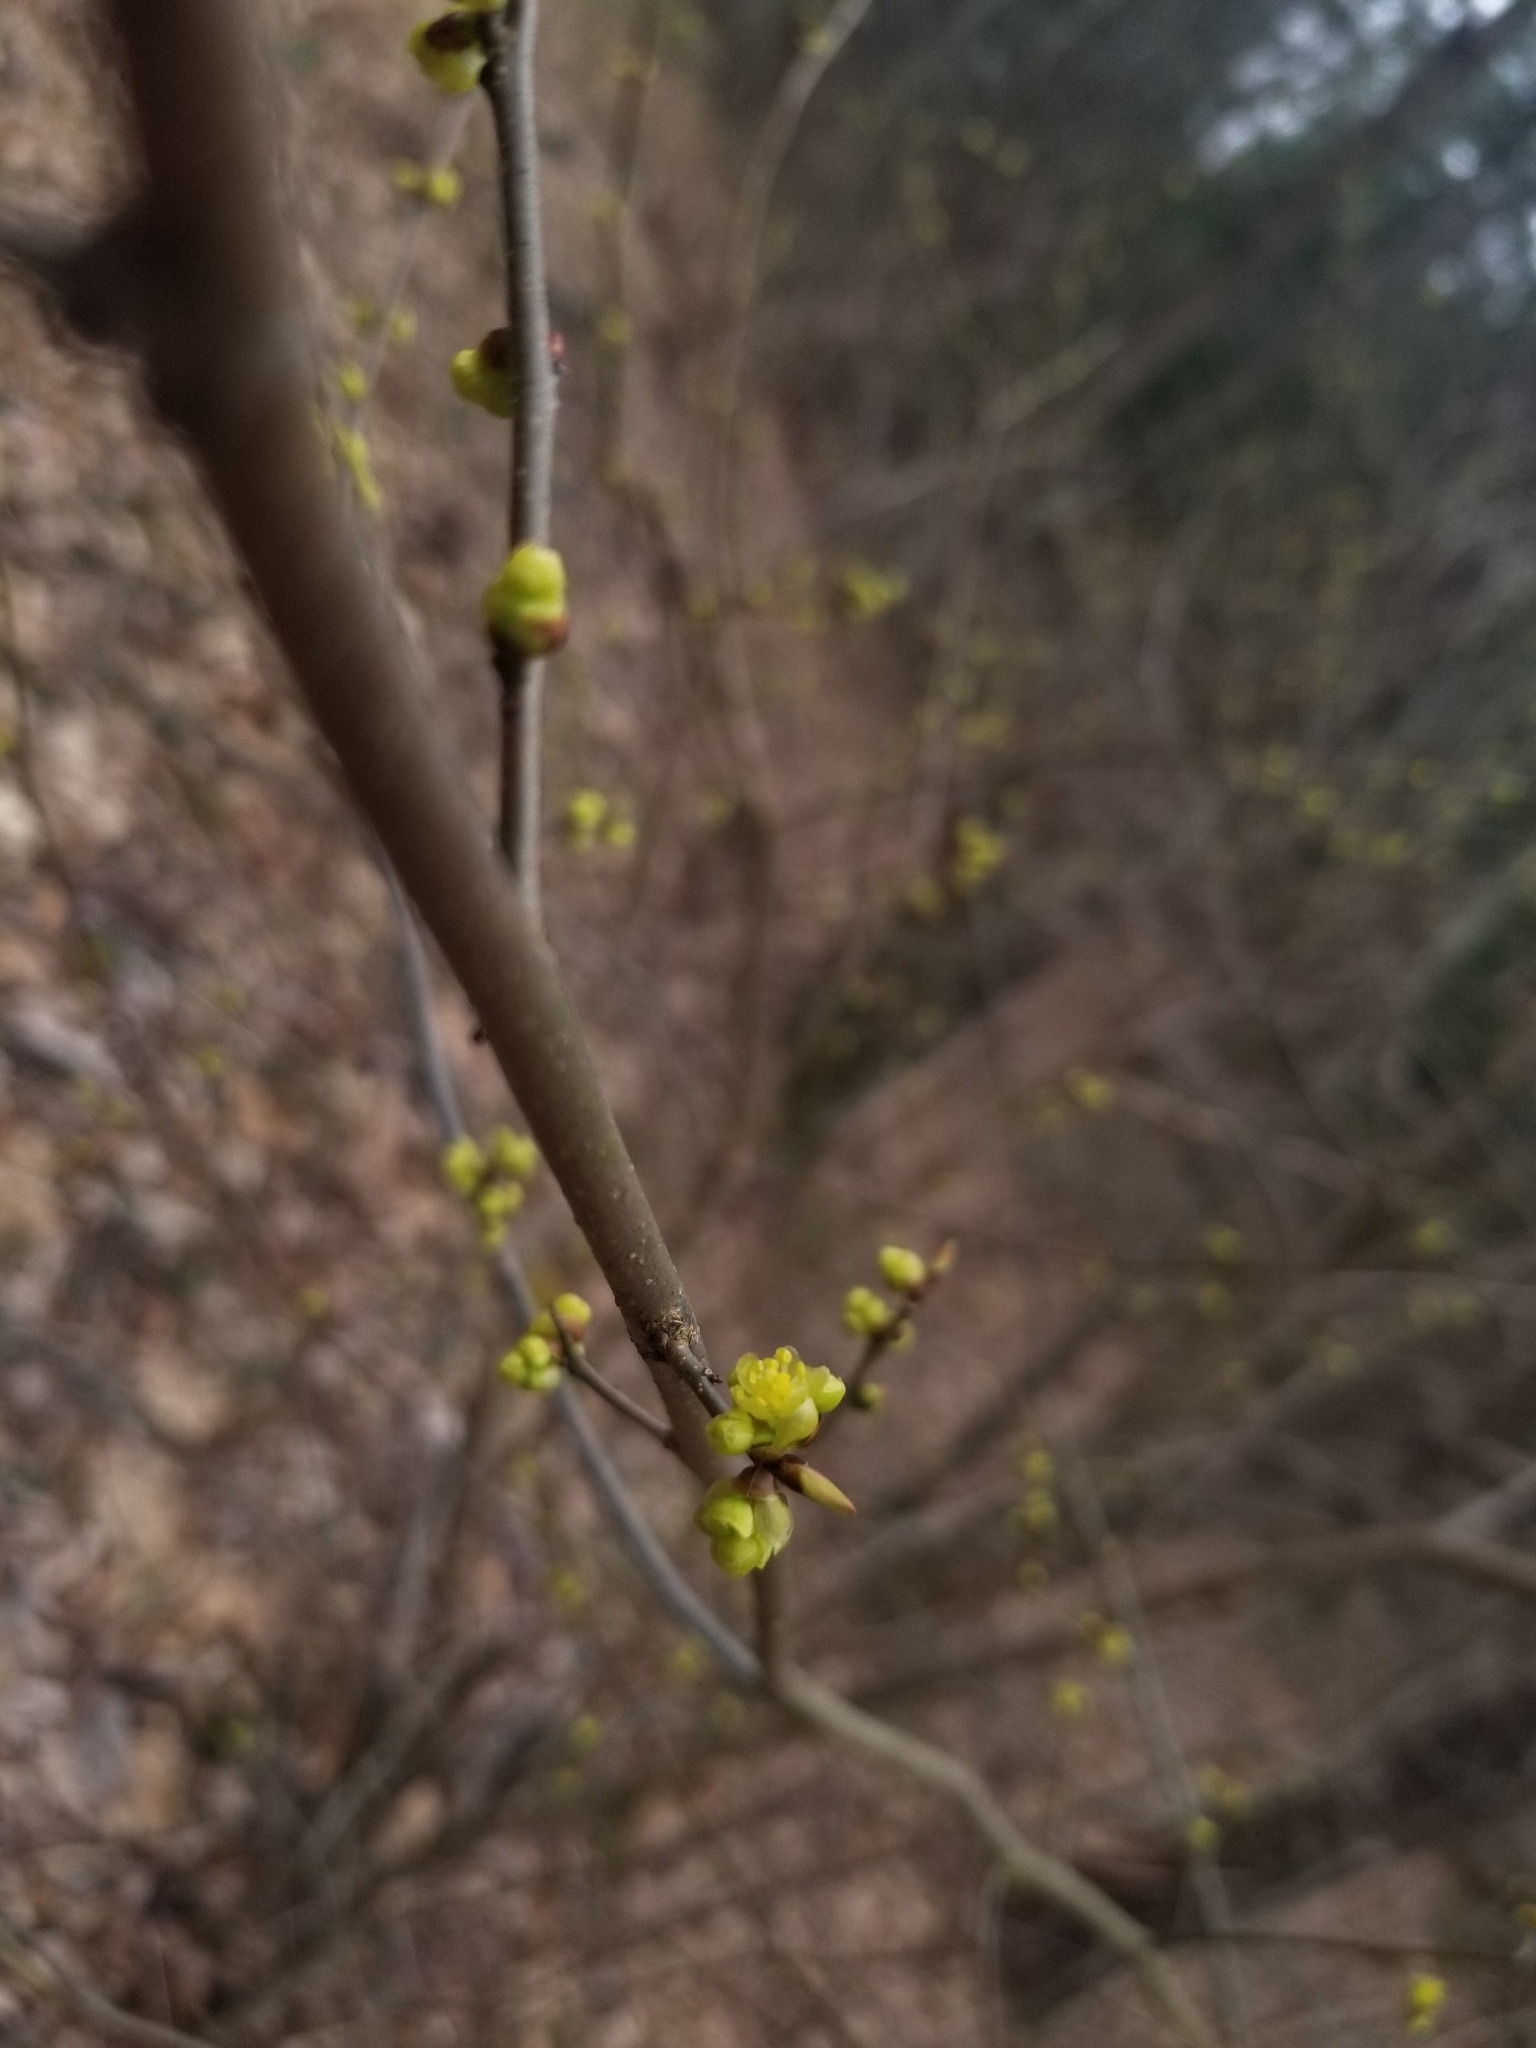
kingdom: Plantae
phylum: Tracheophyta
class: Magnoliopsida
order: Laurales
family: Lauraceae
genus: Lindera
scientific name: Lindera benzoin
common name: Spicebush
